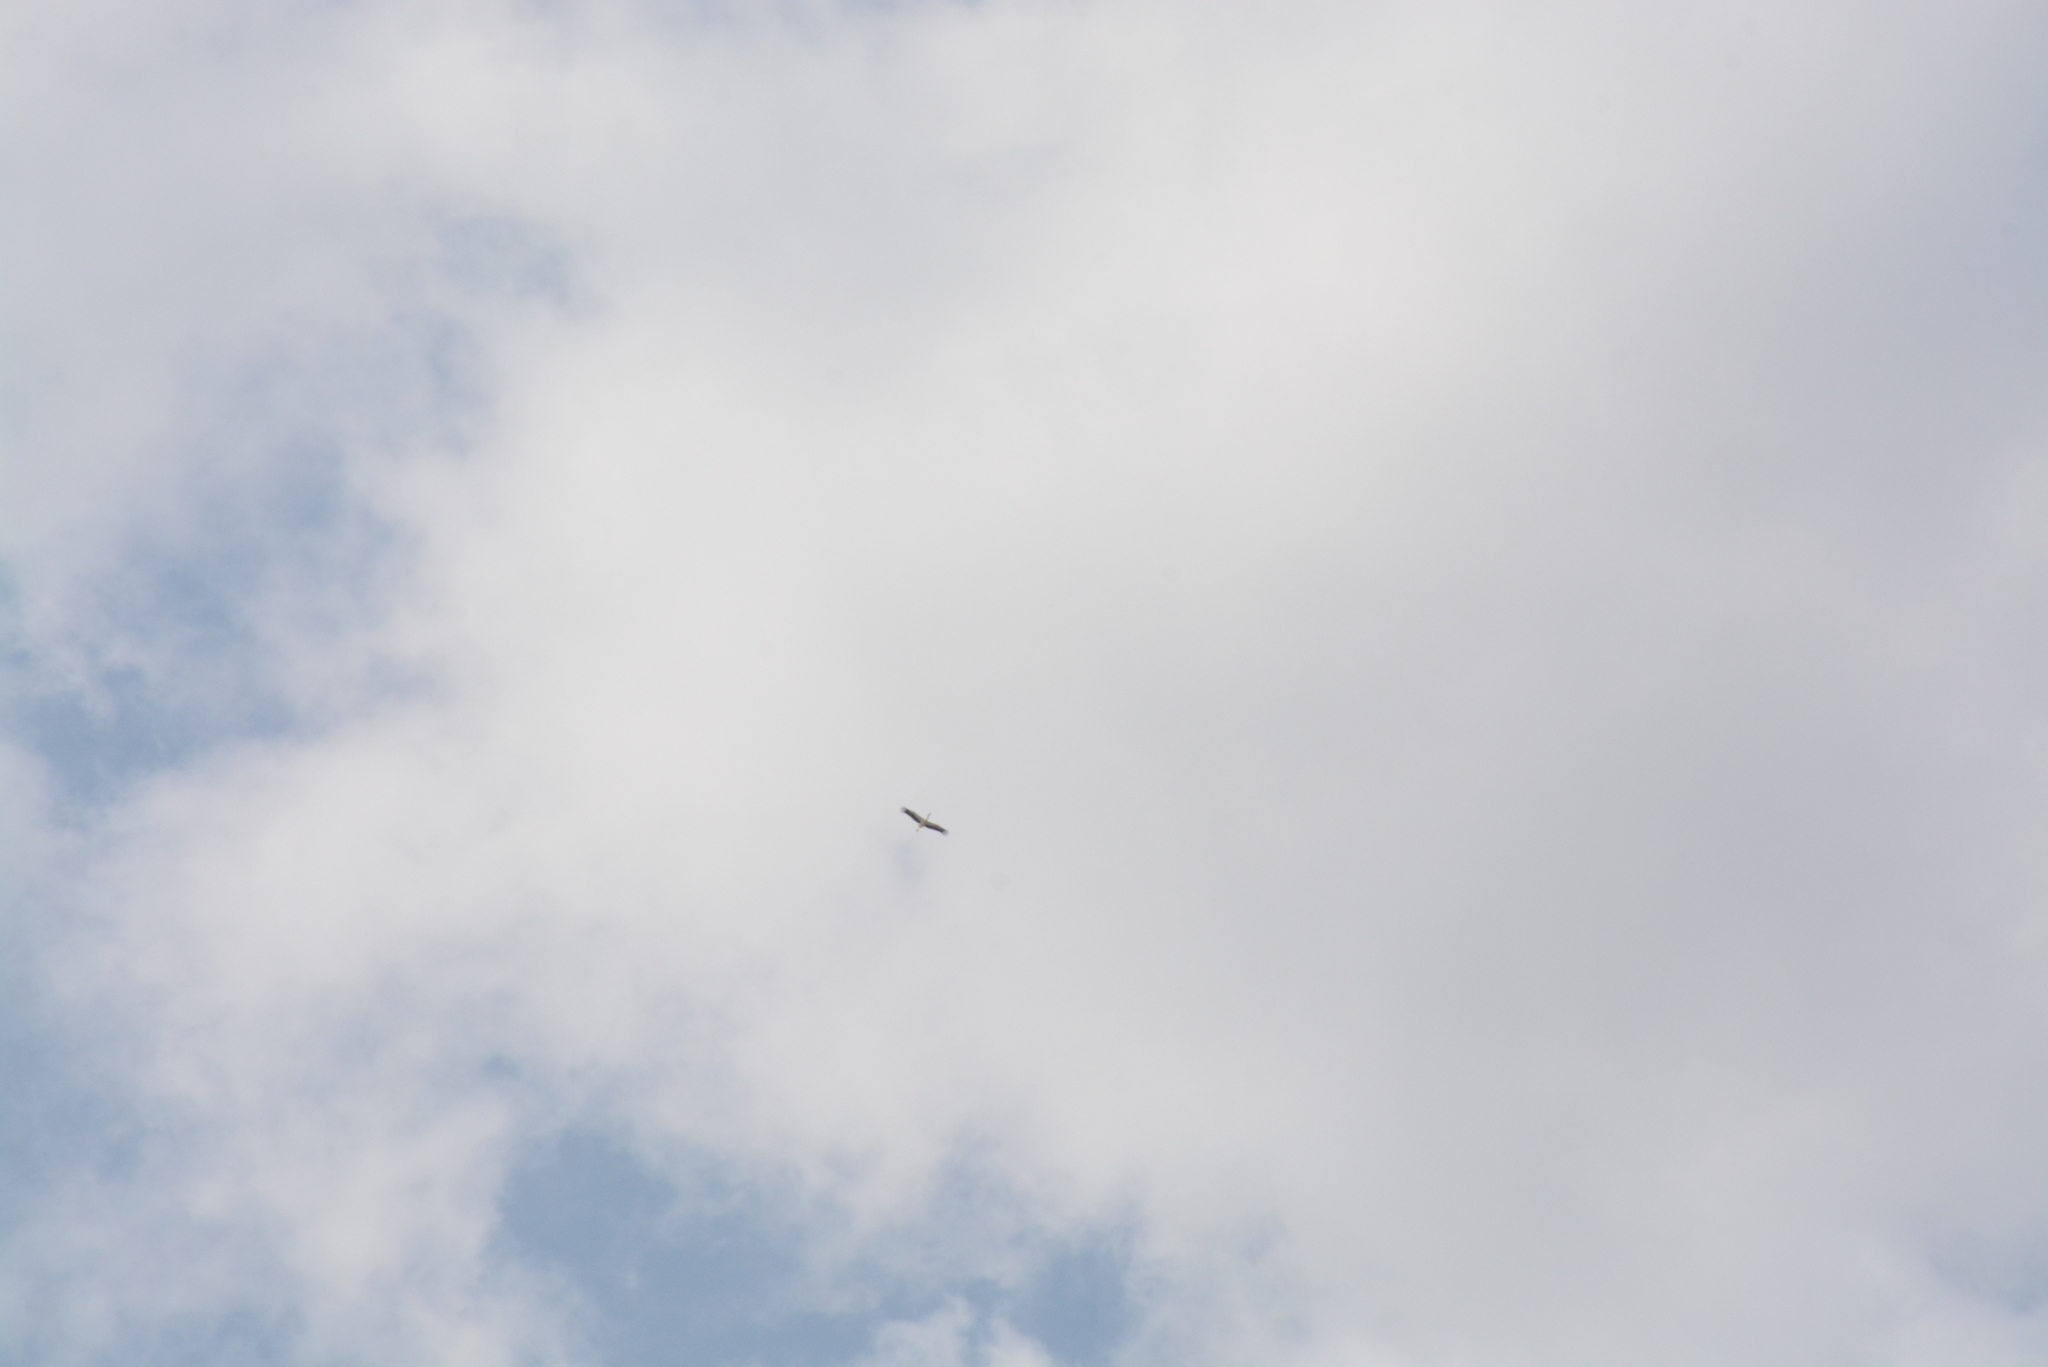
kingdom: Animalia
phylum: Chordata
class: Aves
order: Ciconiiformes
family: Ciconiidae
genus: Ciconia
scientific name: Ciconia ciconia
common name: White stork
